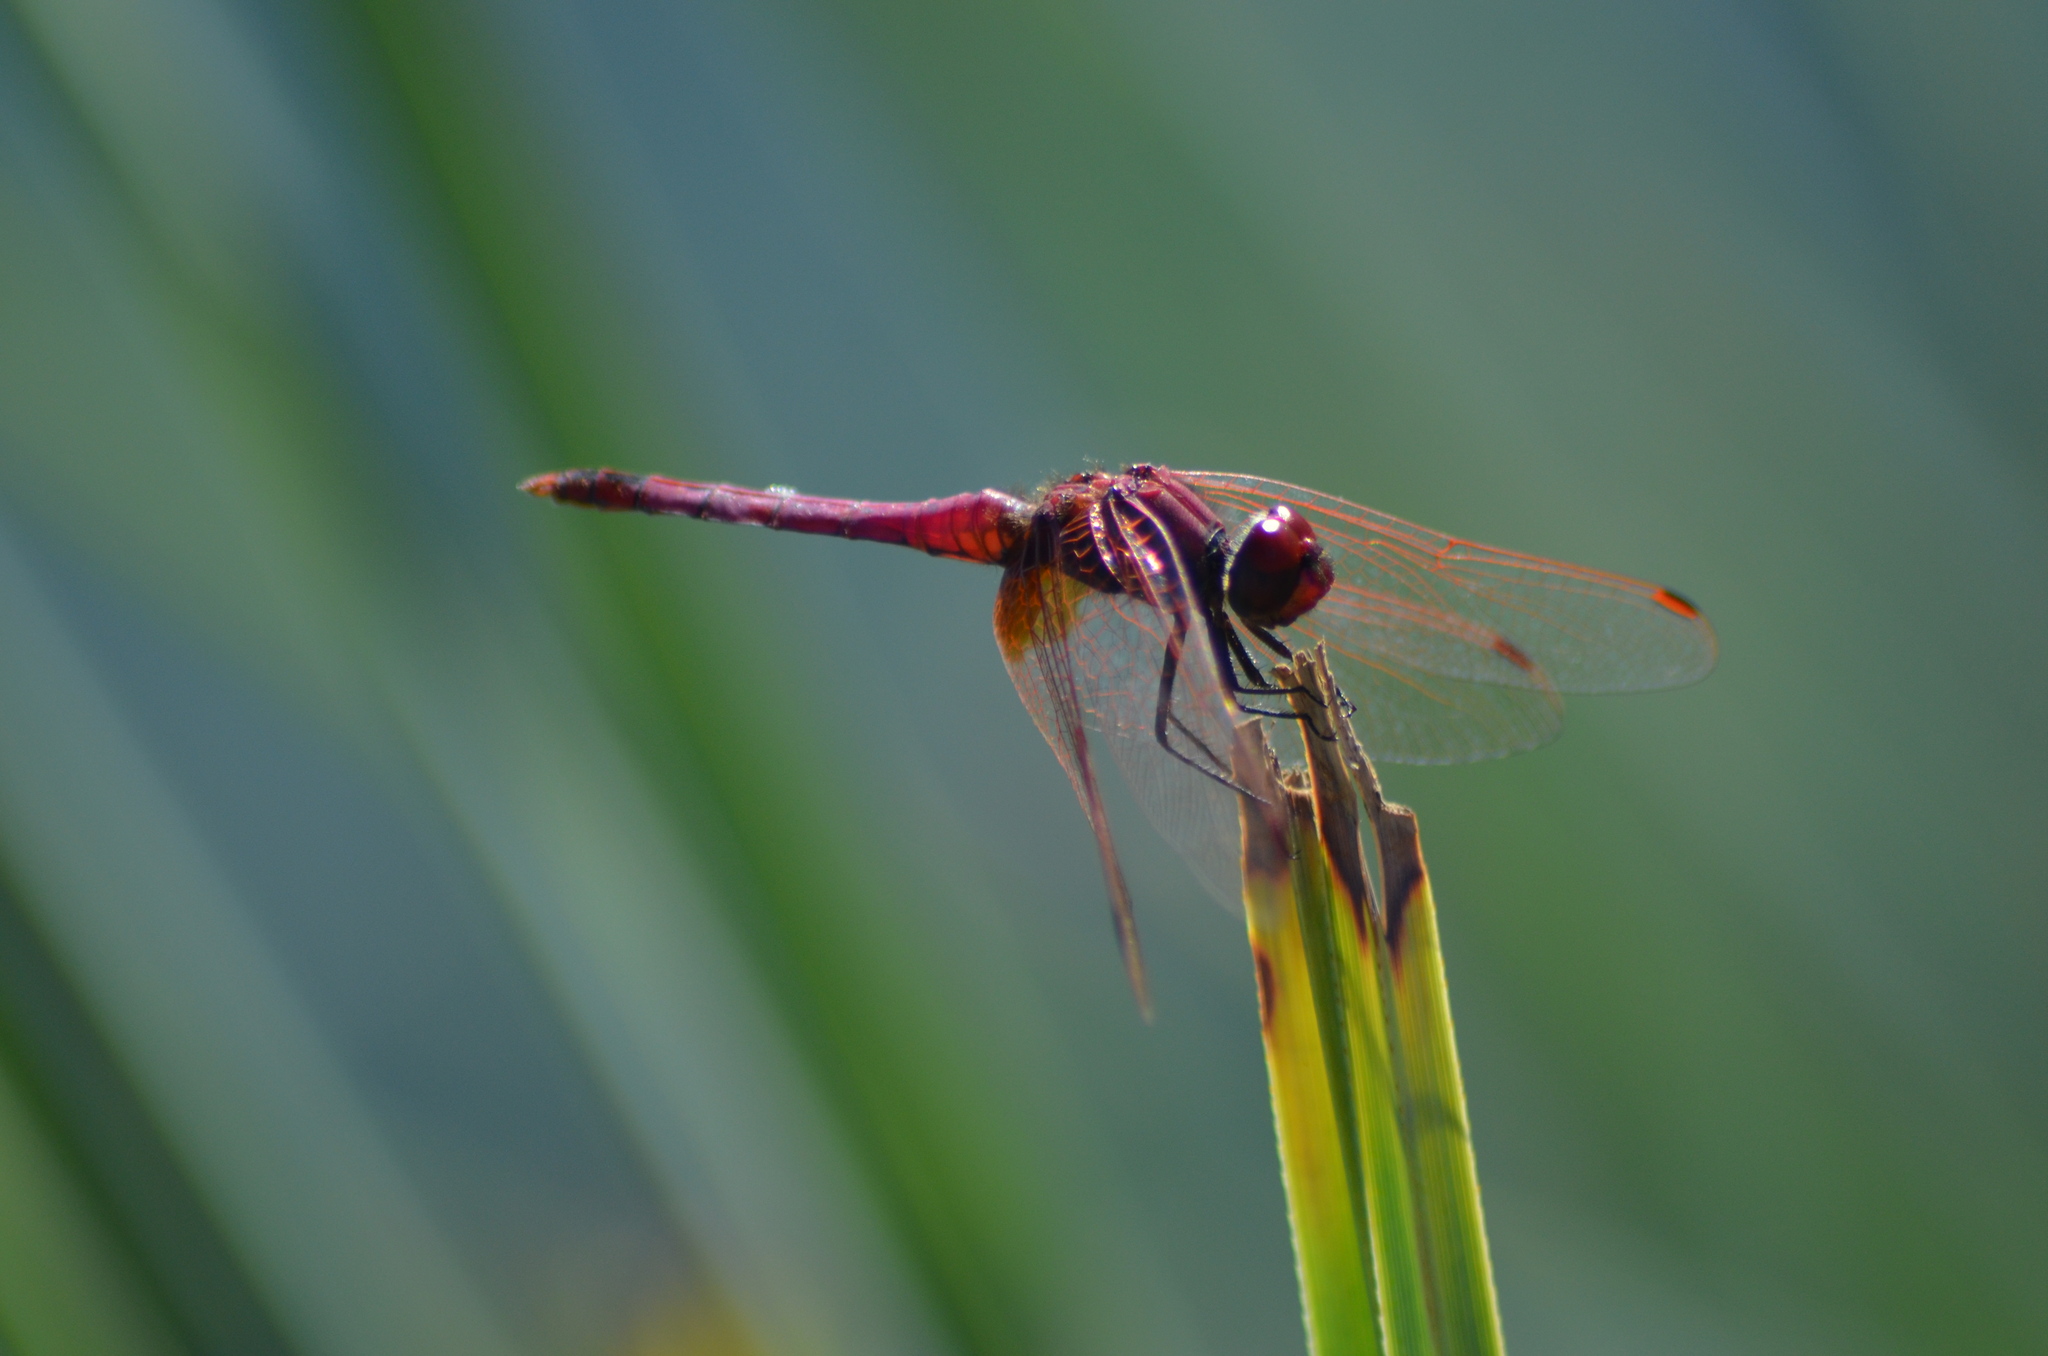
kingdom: Animalia
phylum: Arthropoda
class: Insecta
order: Odonata
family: Libellulidae
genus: Trithemis
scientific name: Trithemis annulata
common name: Violet dropwing
